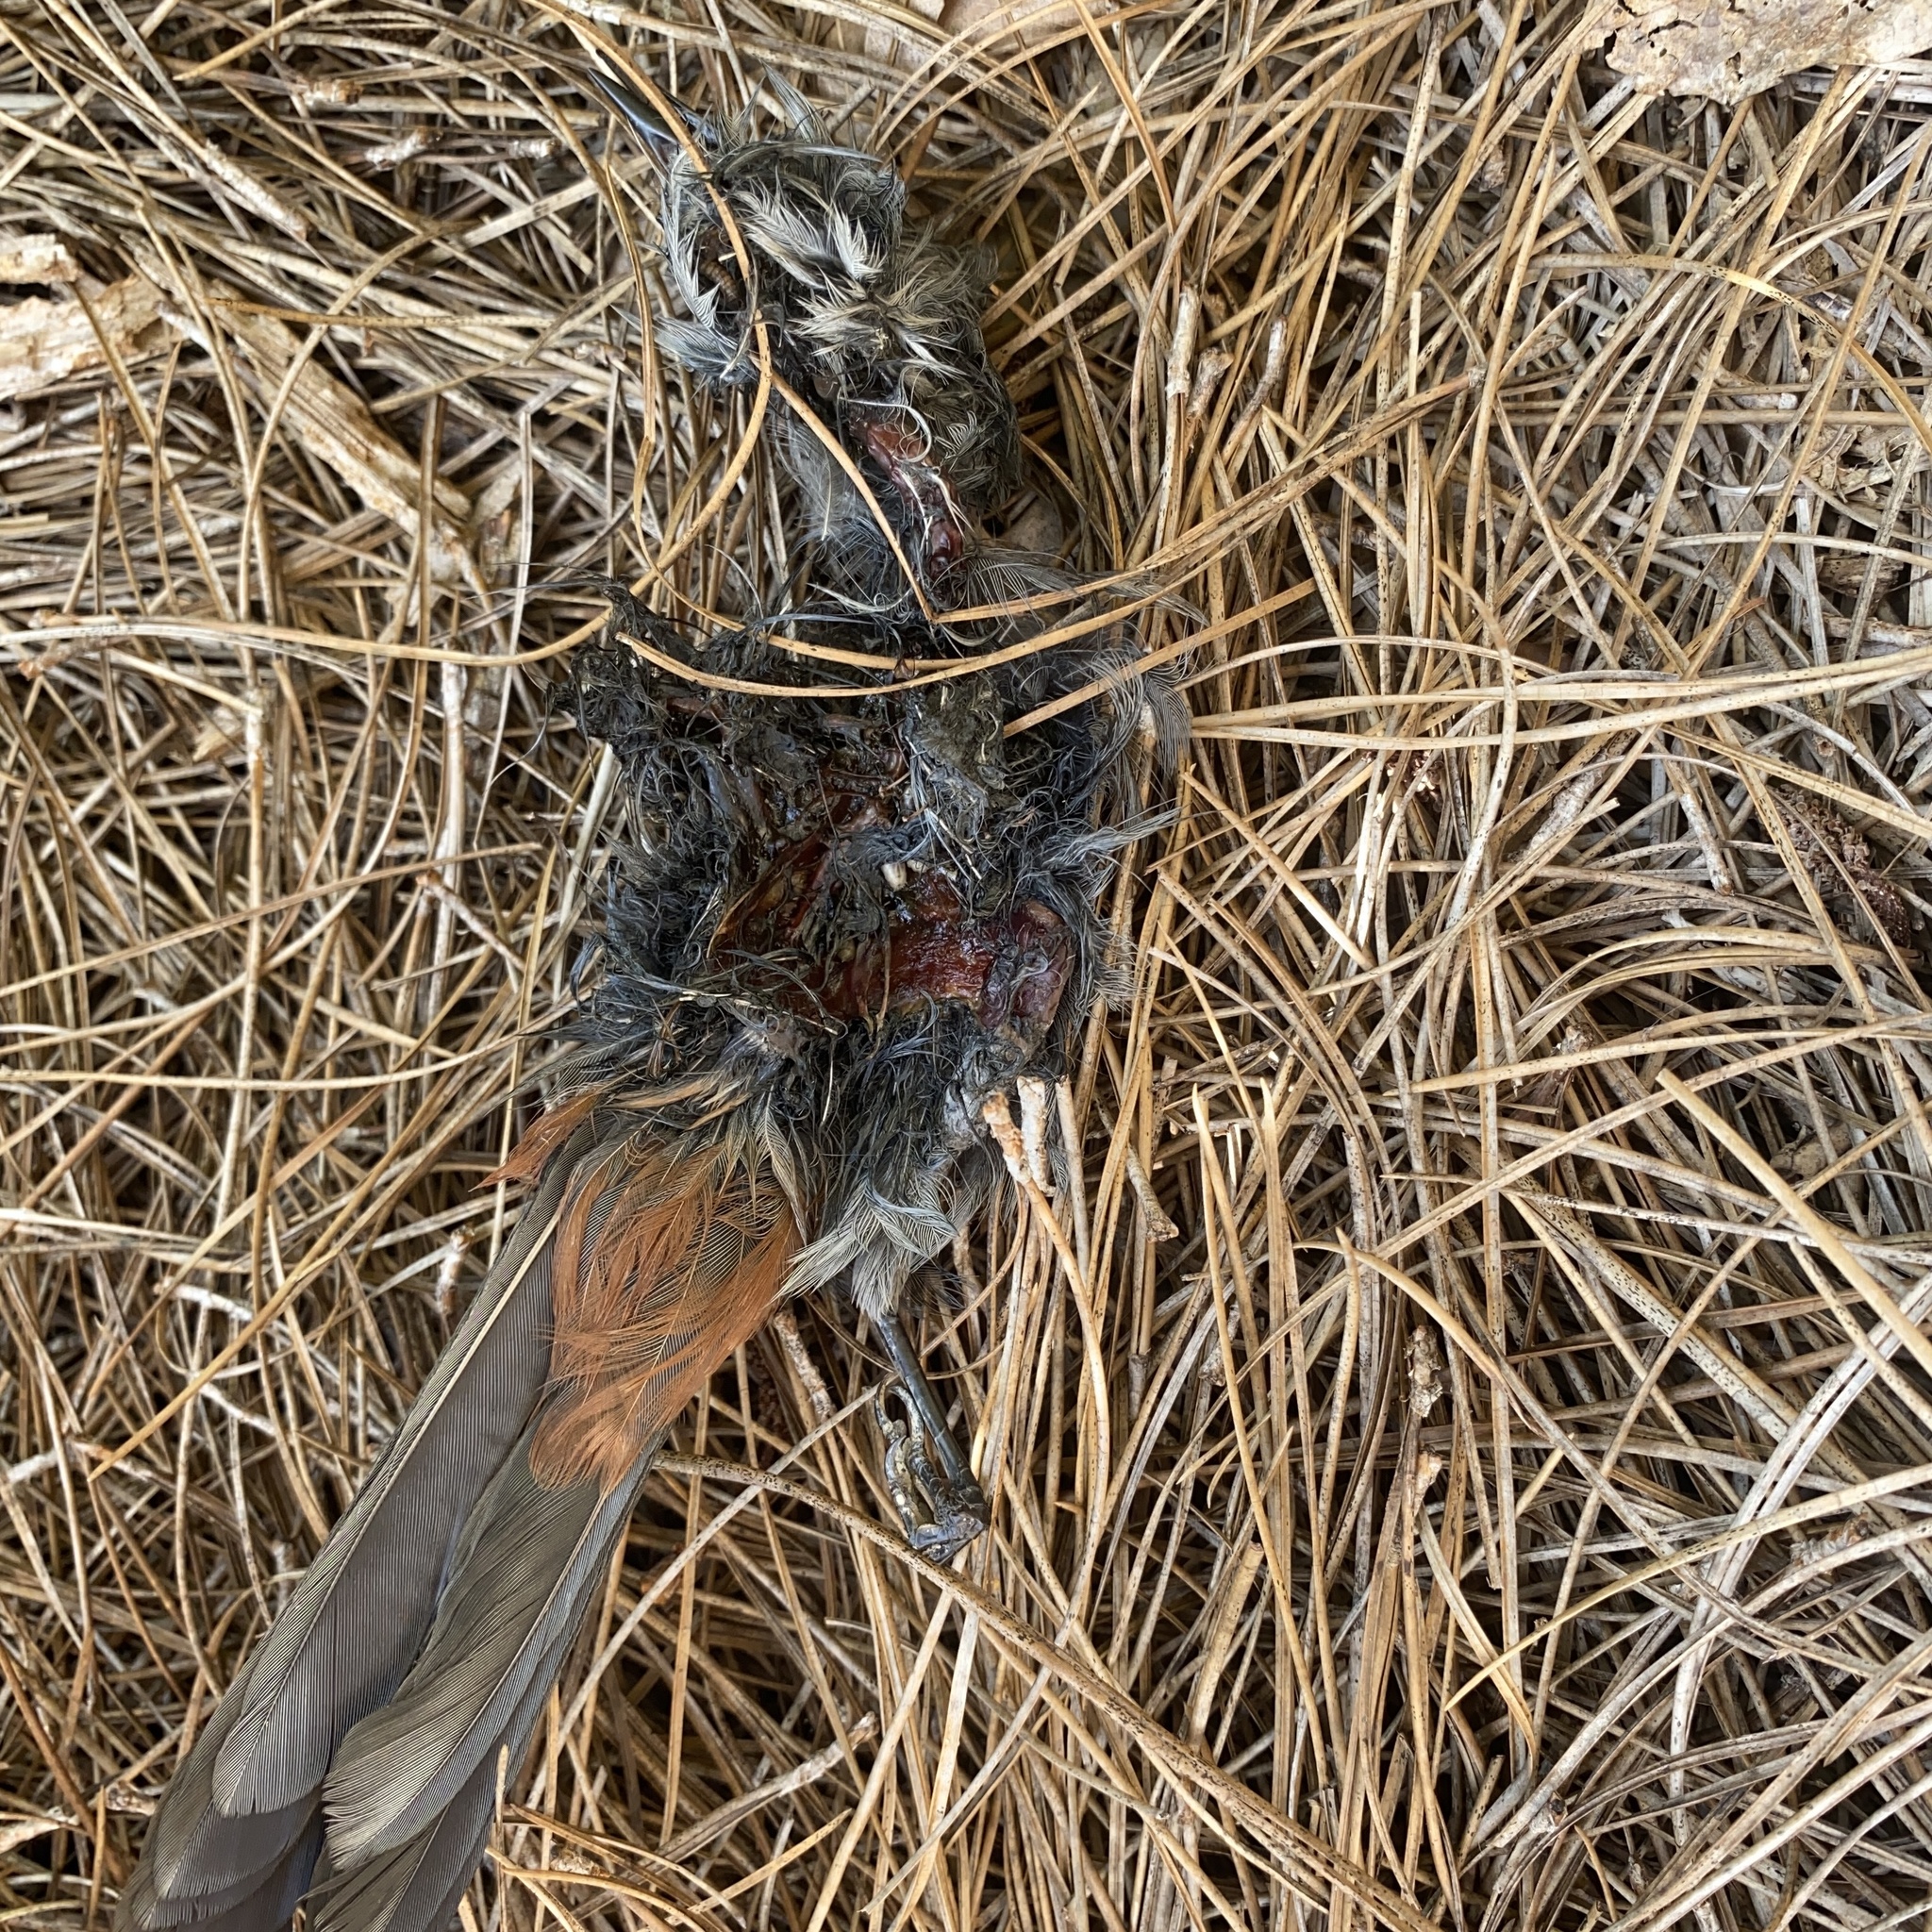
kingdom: Animalia
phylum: Chordata
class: Aves
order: Passeriformes
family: Mimidae
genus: Dumetella
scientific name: Dumetella carolinensis
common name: Gray catbird
